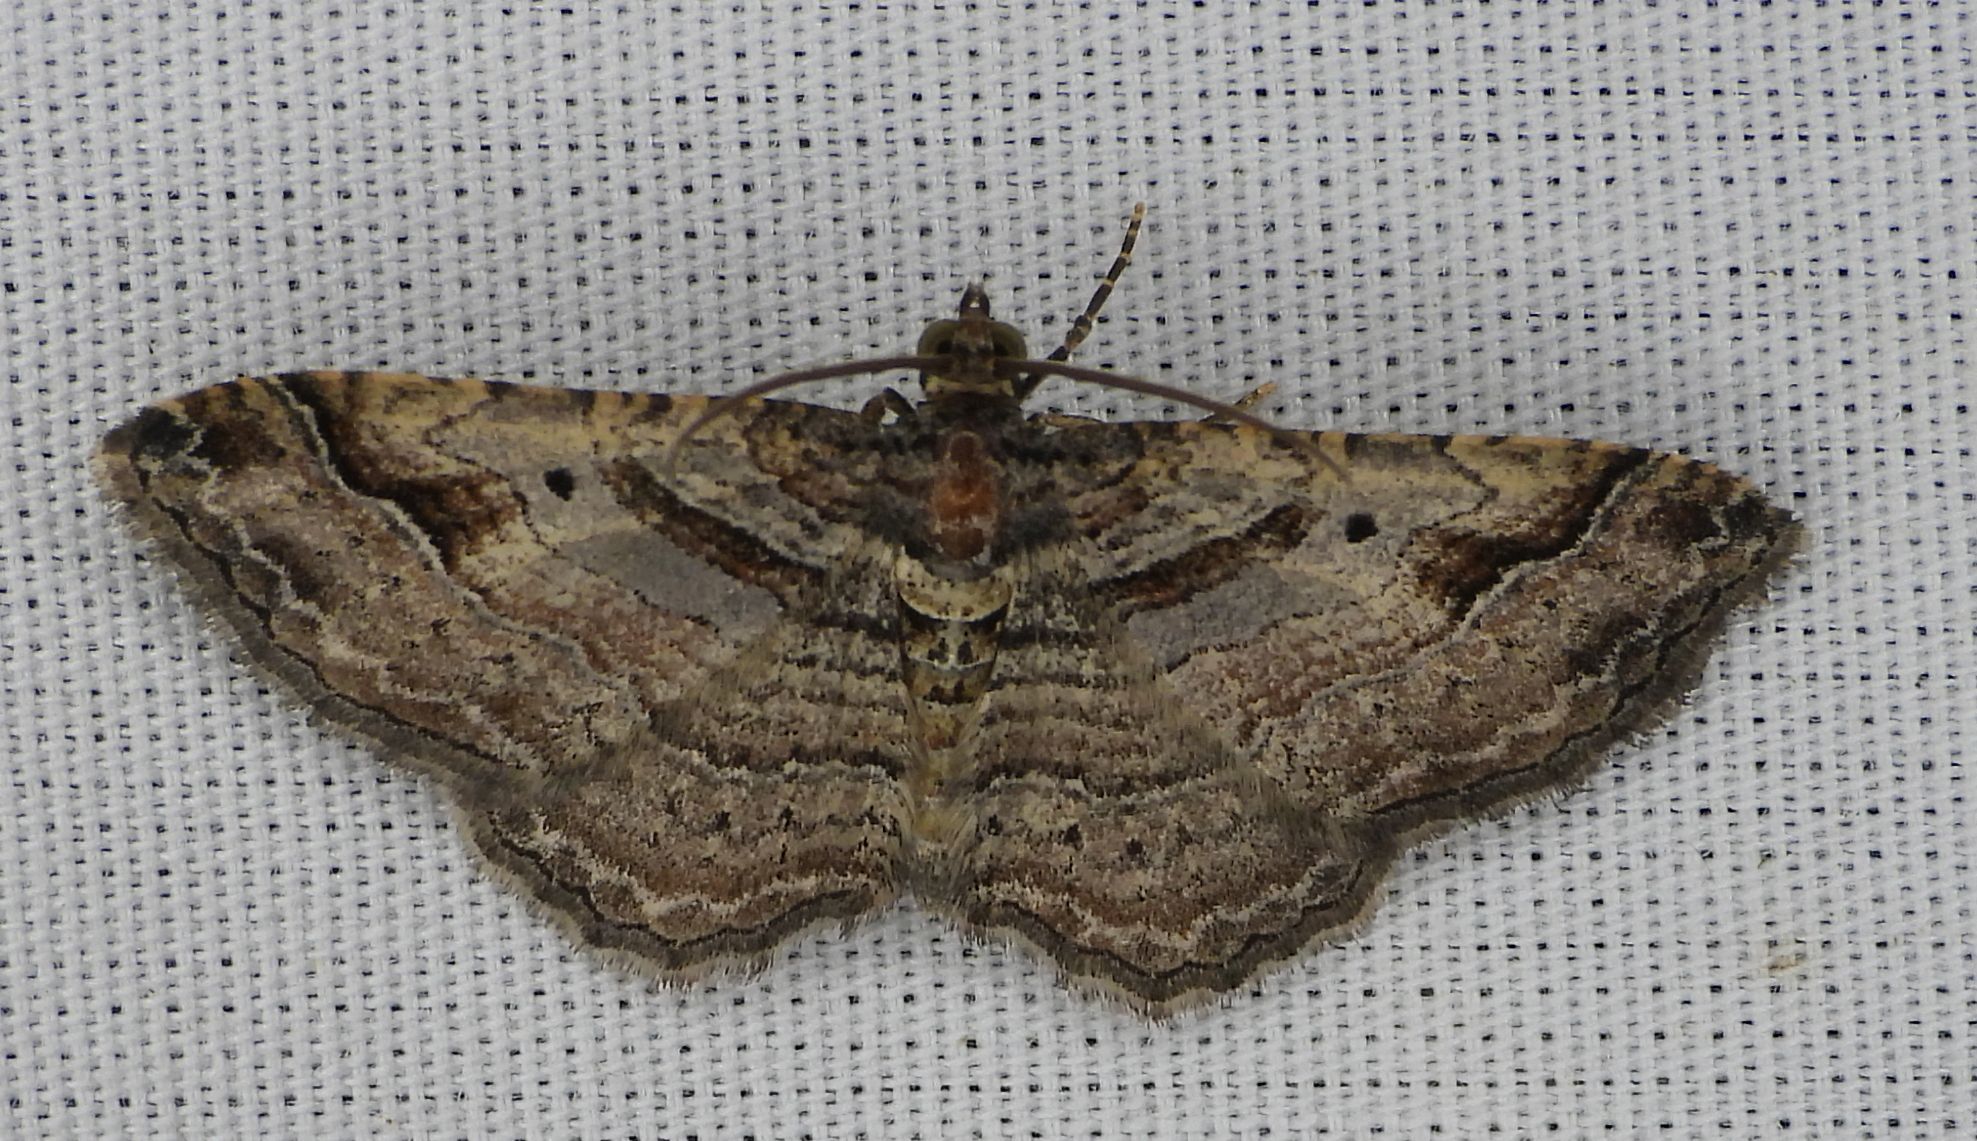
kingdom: Animalia
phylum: Arthropoda
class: Insecta
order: Lepidoptera
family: Geometridae
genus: Costaconvexa
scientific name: Costaconvexa centrostrigaria
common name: Bent-line carpet
